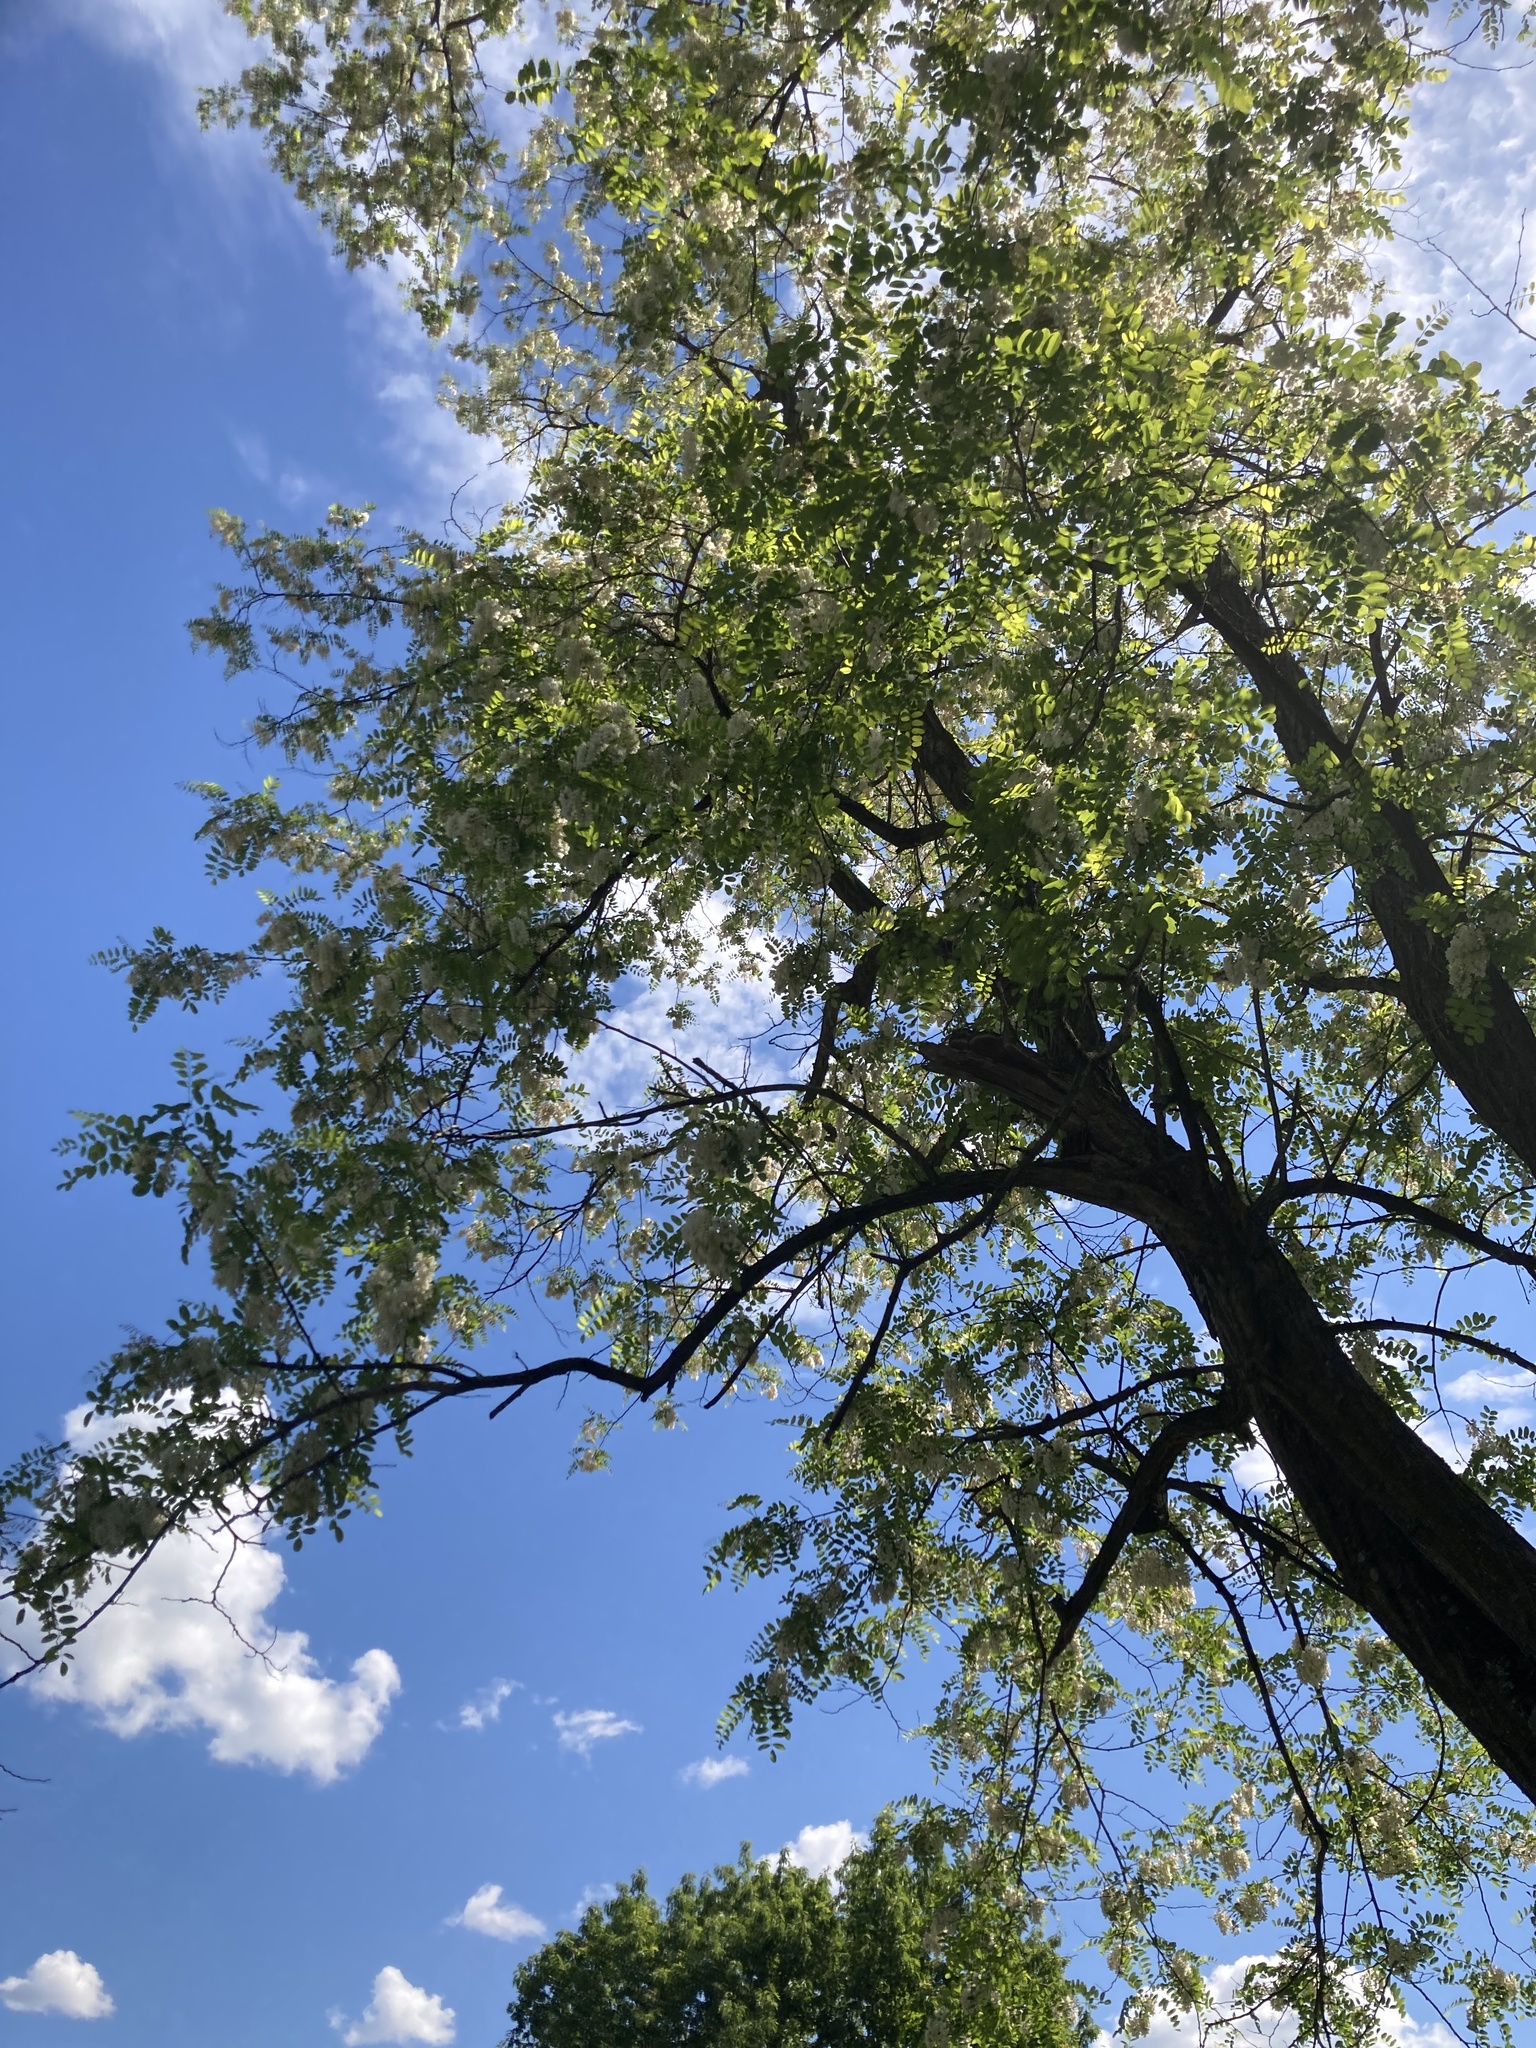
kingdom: Plantae
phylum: Tracheophyta
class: Magnoliopsida
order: Fabales
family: Fabaceae
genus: Robinia
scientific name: Robinia pseudoacacia
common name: Black locust
